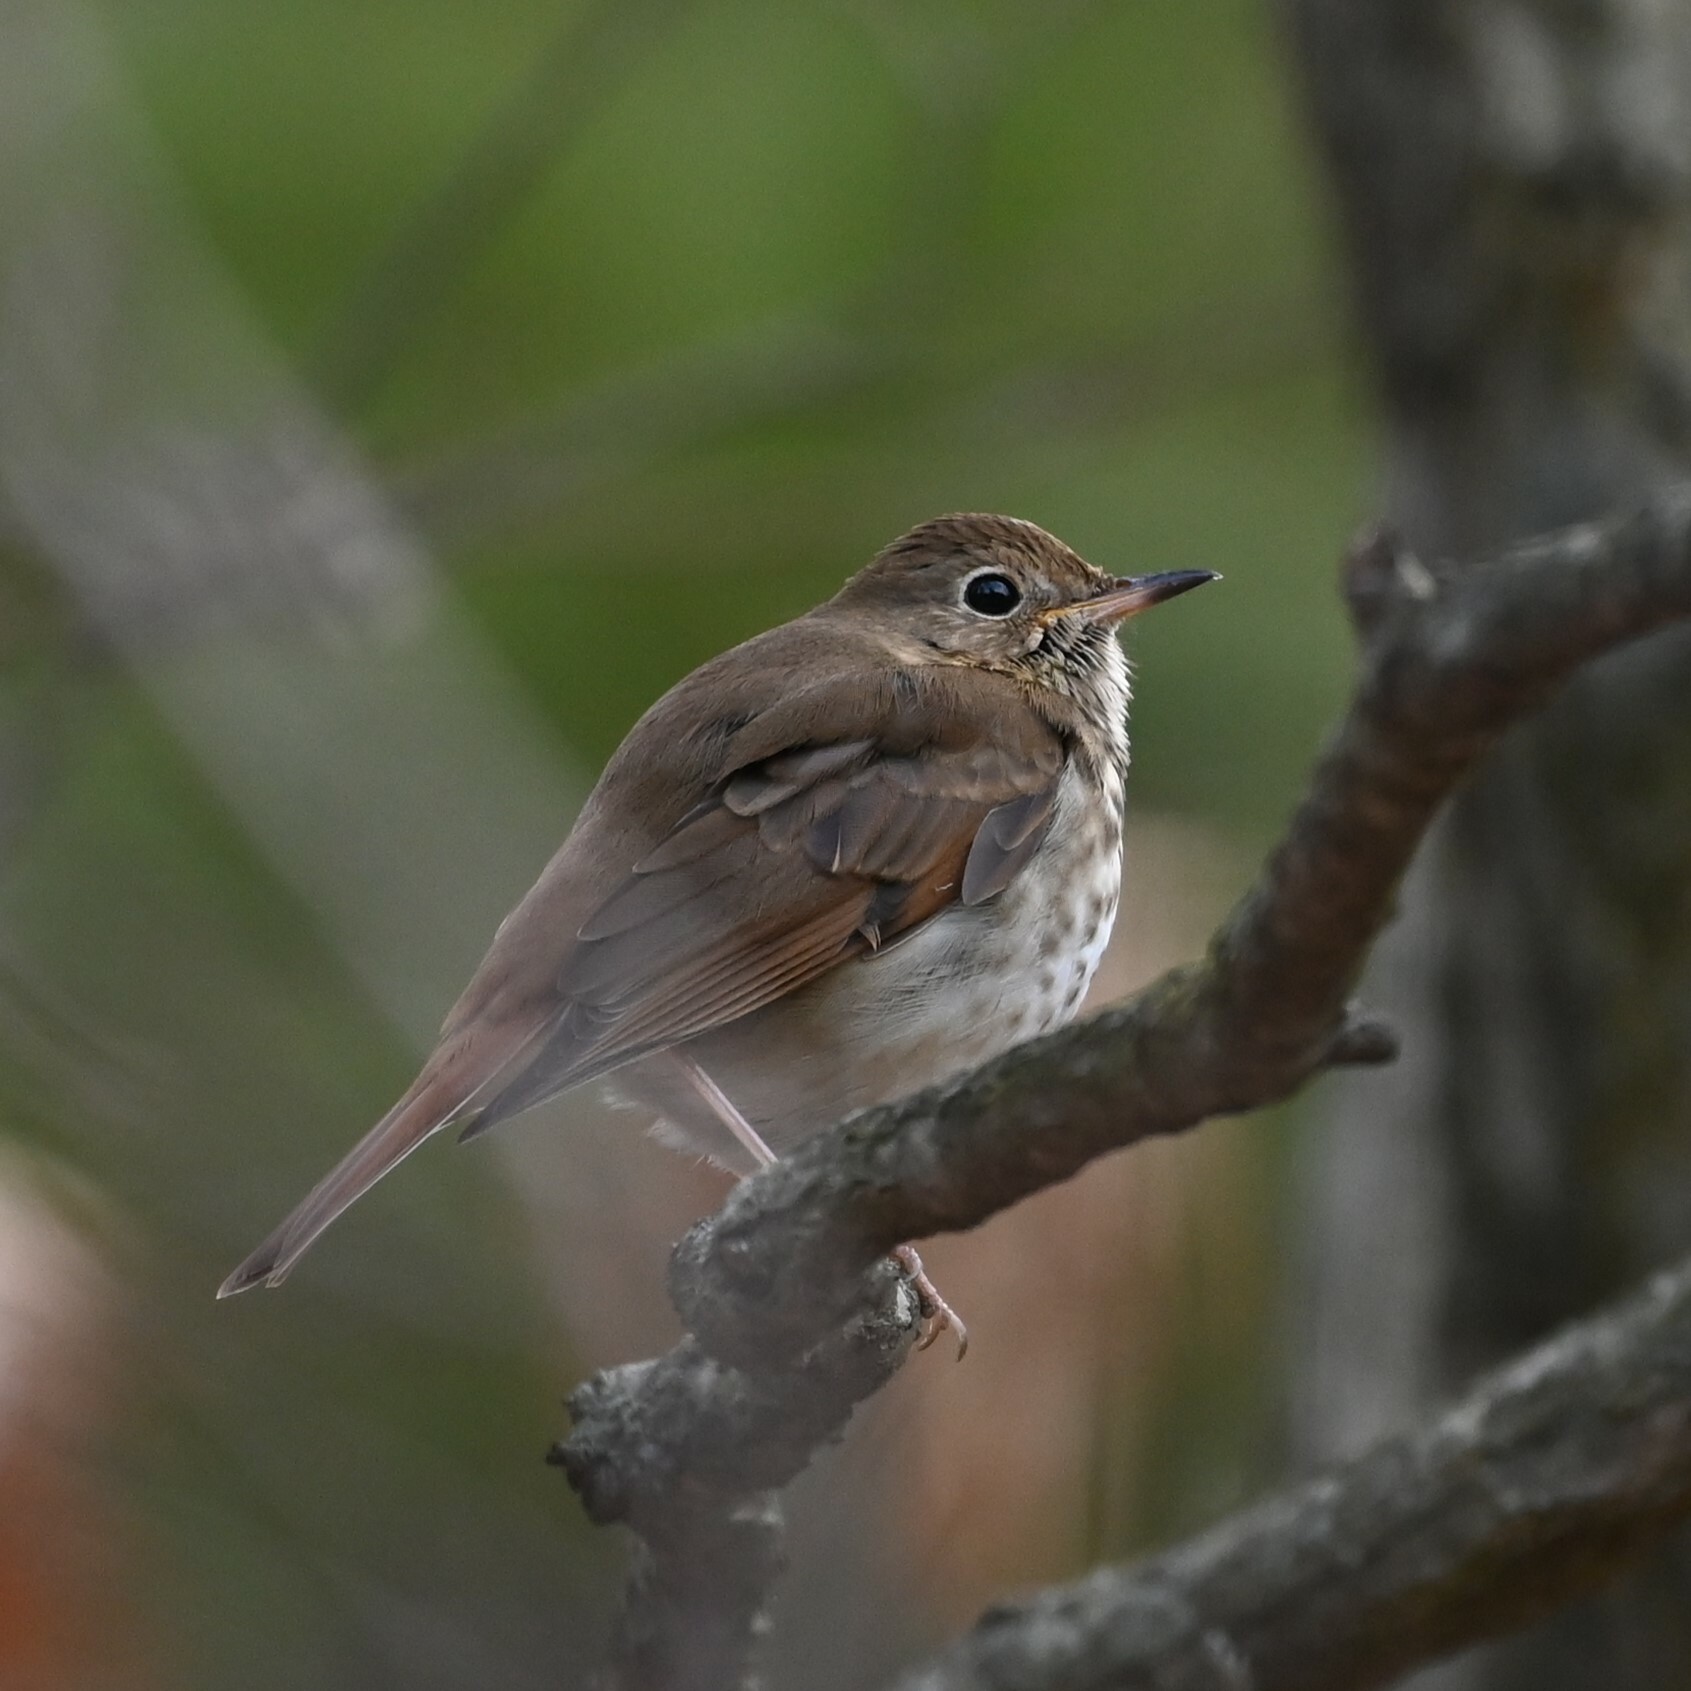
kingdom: Animalia
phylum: Chordata
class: Aves
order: Passeriformes
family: Turdidae
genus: Catharus
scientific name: Catharus guttatus
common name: Hermit thrush
